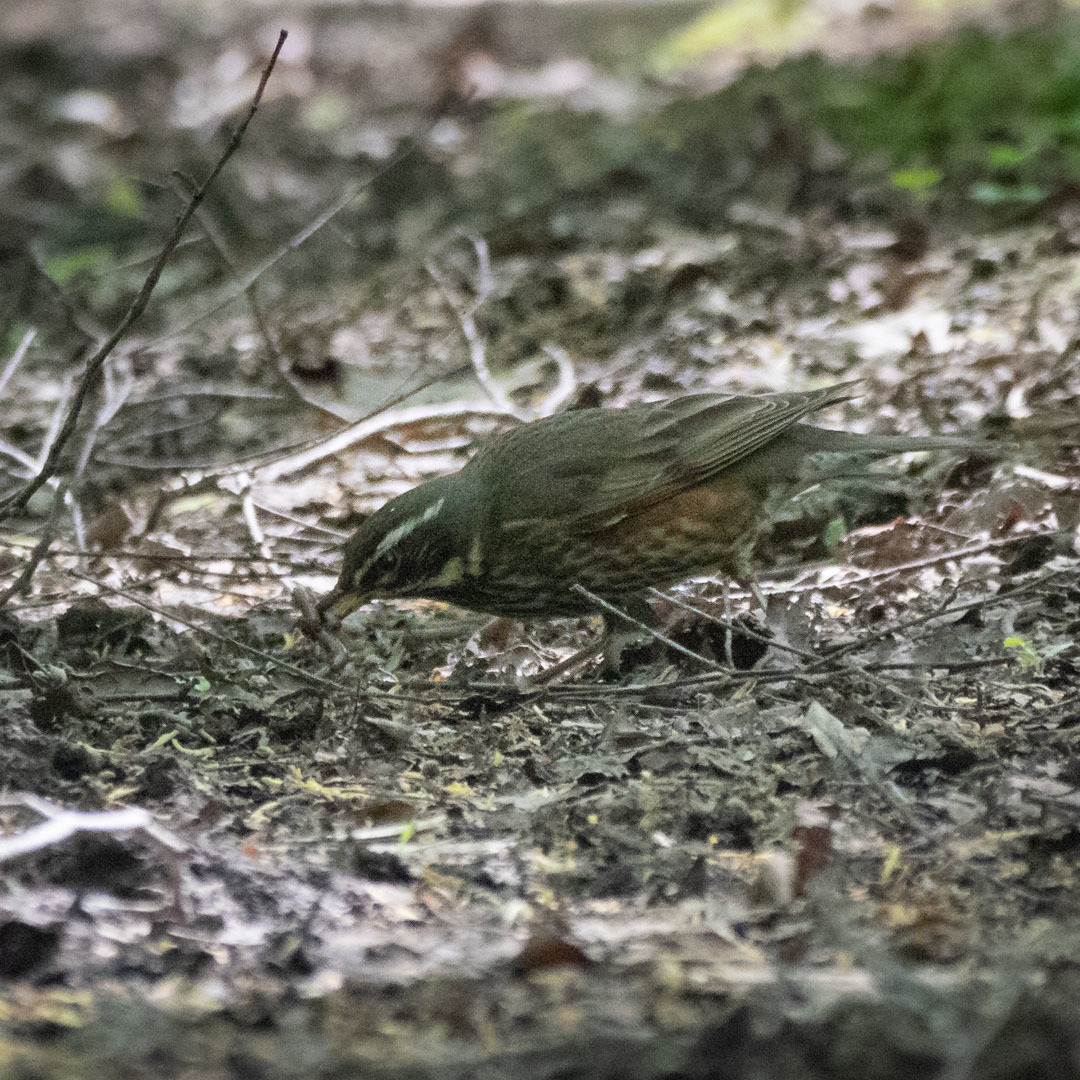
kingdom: Animalia
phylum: Chordata
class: Aves
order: Passeriformes
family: Turdidae
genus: Turdus
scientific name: Turdus iliacus
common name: Redwing
